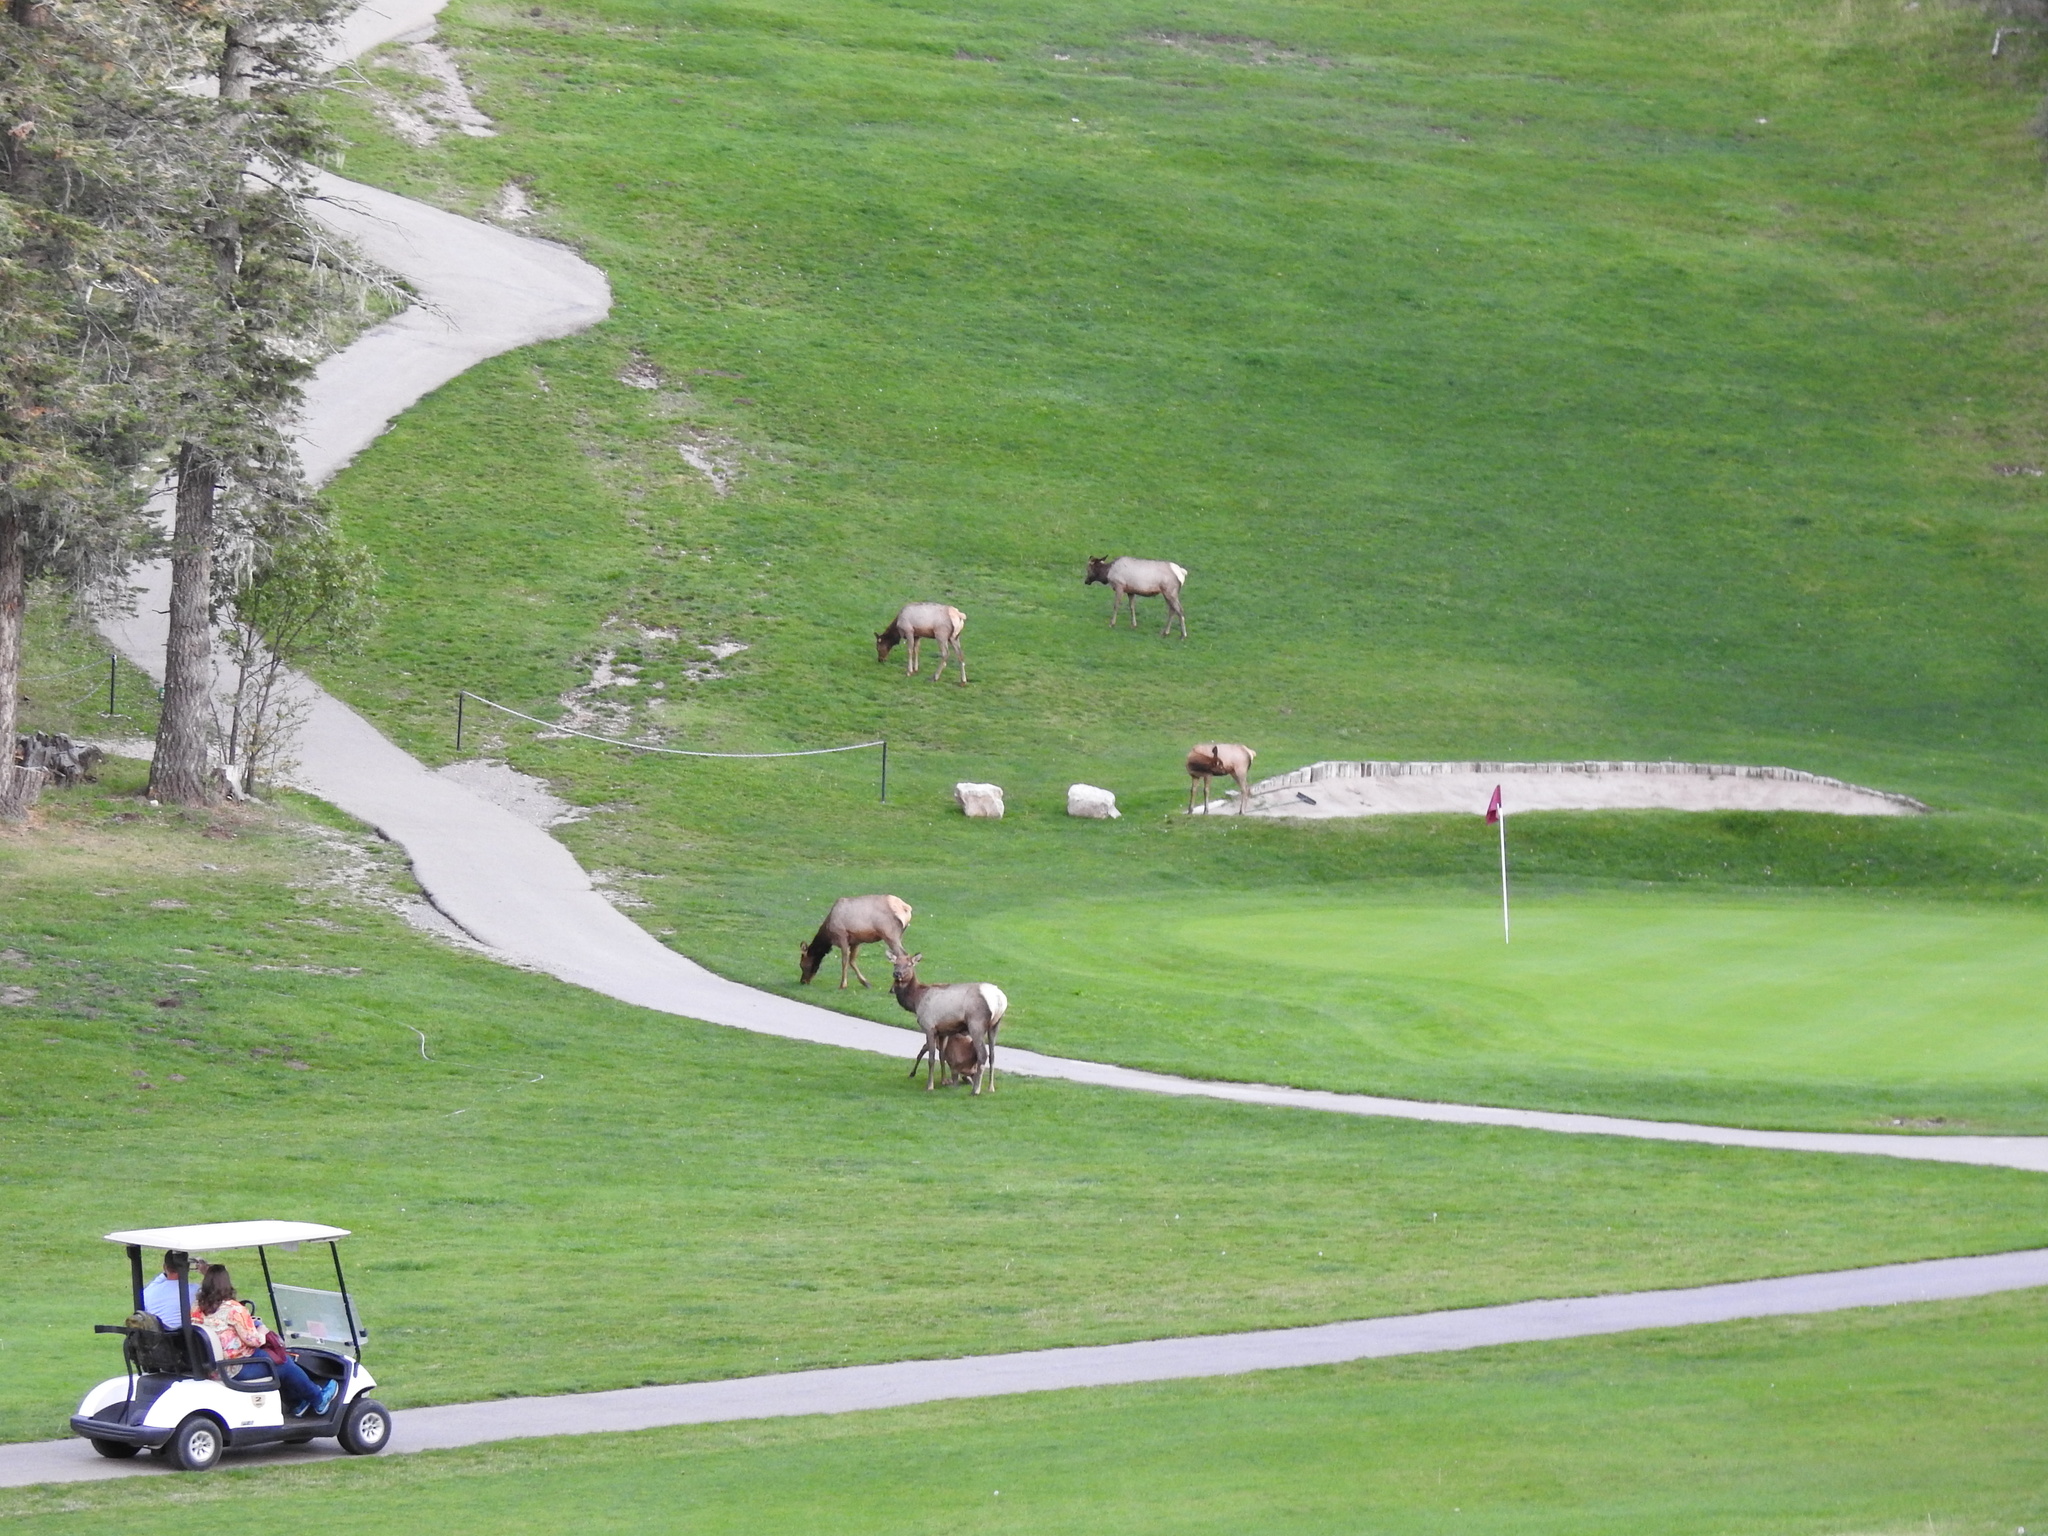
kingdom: Animalia
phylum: Chordata
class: Mammalia
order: Artiodactyla
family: Cervidae
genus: Cervus
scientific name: Cervus elaphus
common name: Red deer
